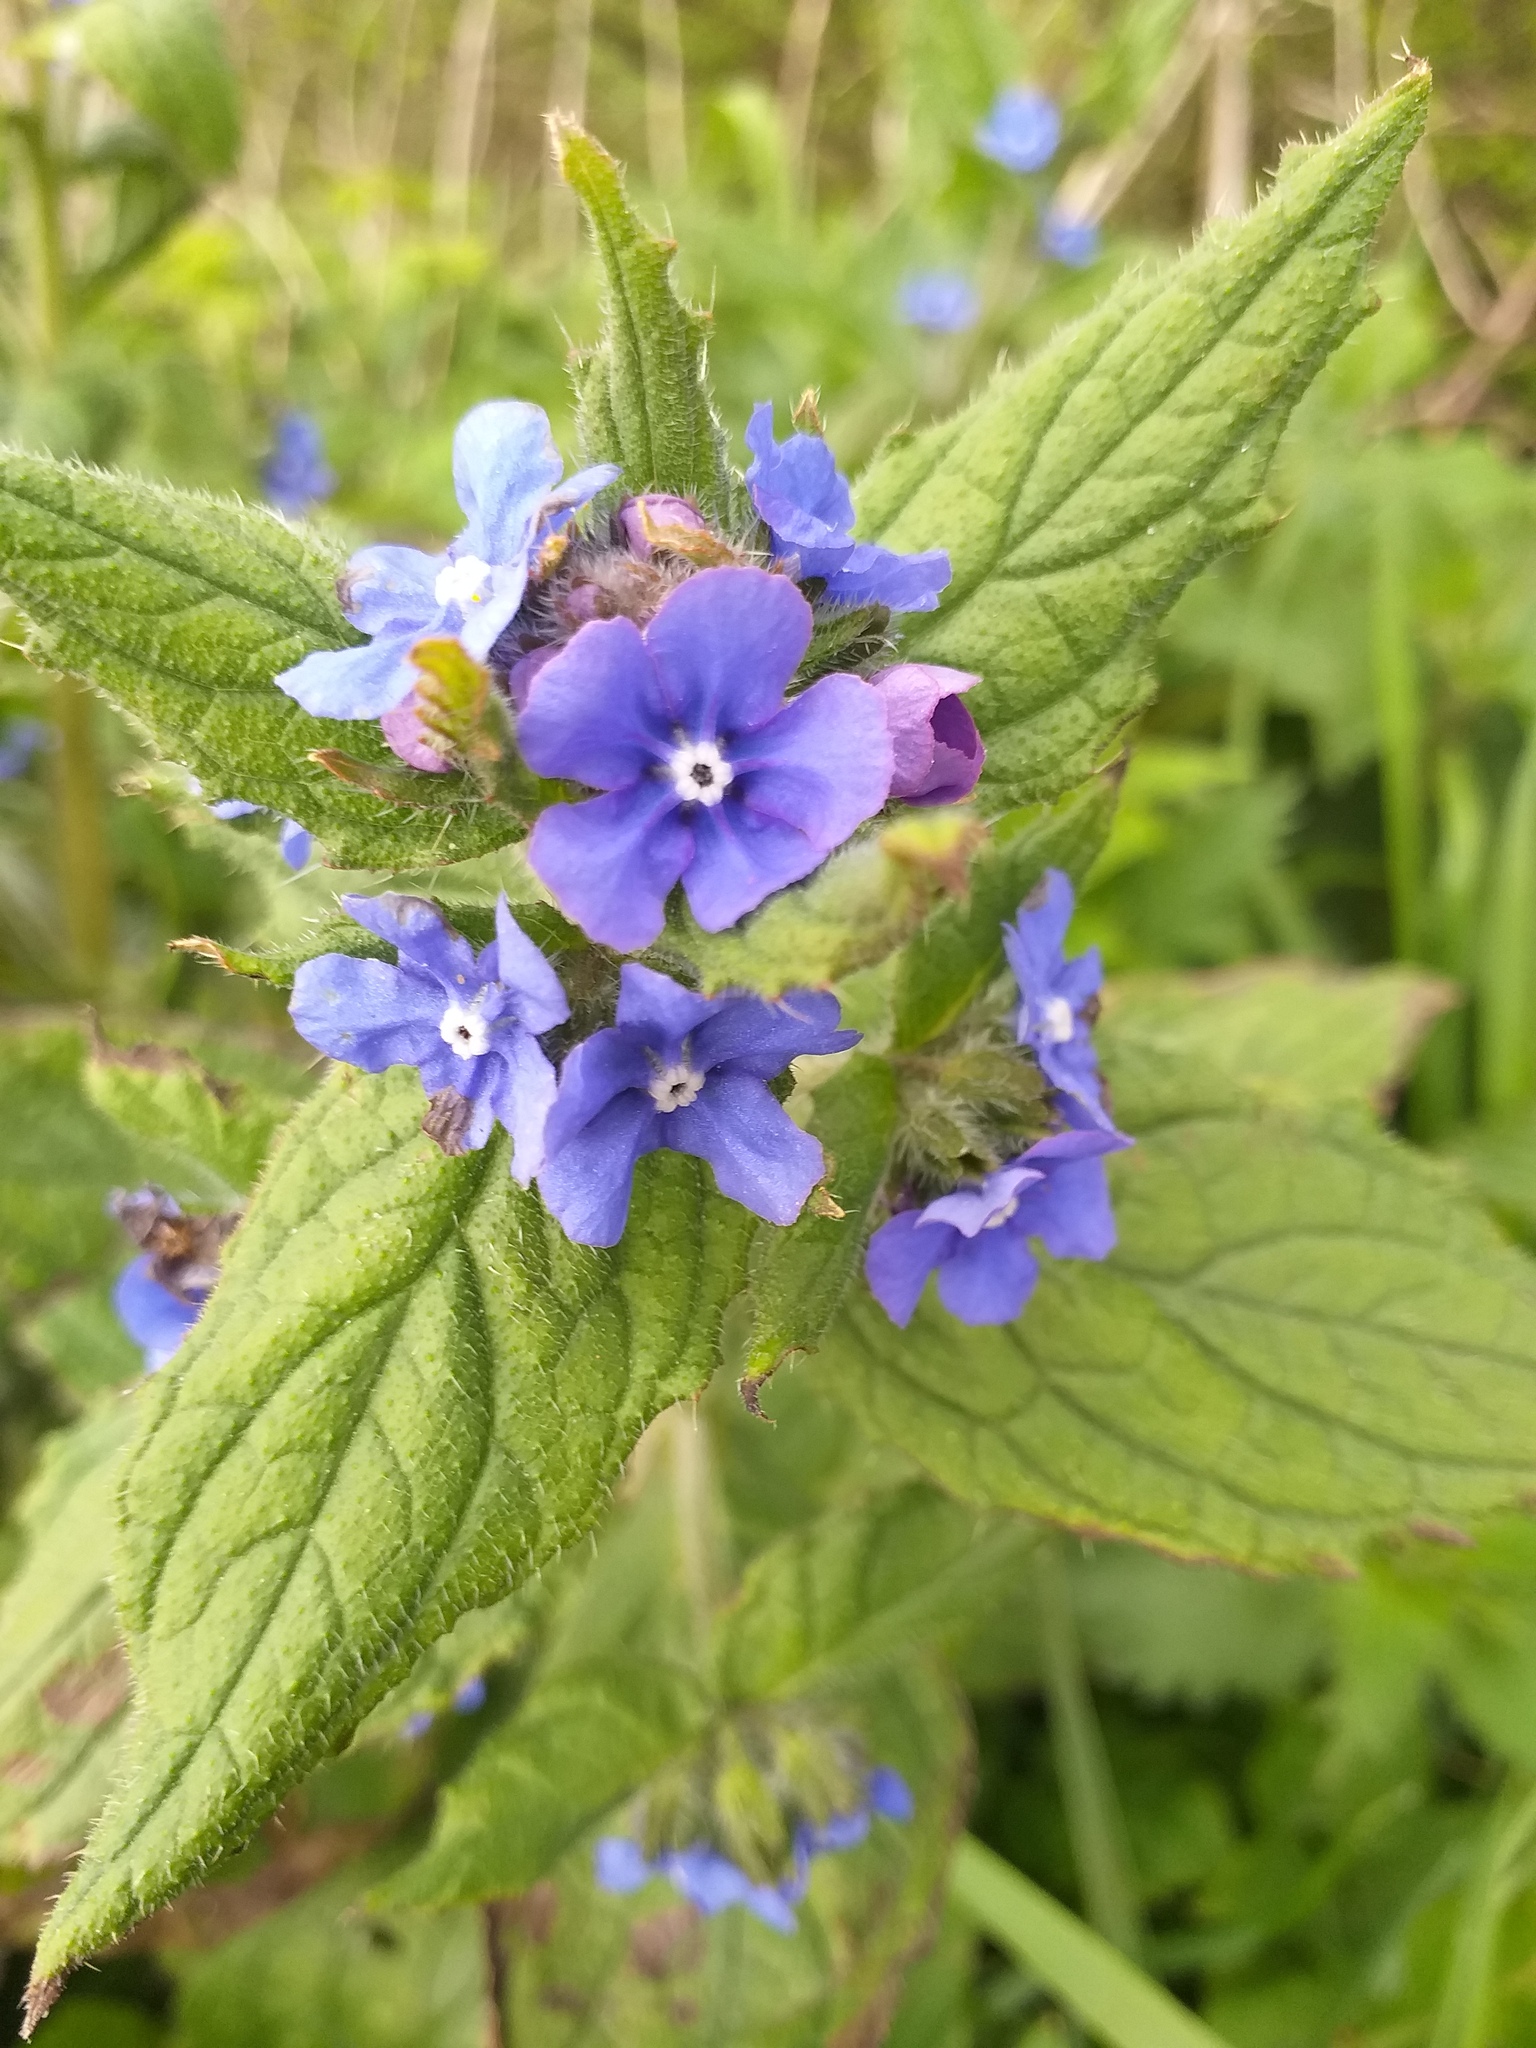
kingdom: Plantae
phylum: Tracheophyta
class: Magnoliopsida
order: Boraginales
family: Boraginaceae
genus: Pentaglottis
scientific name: Pentaglottis sempervirens
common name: Green alkanet
